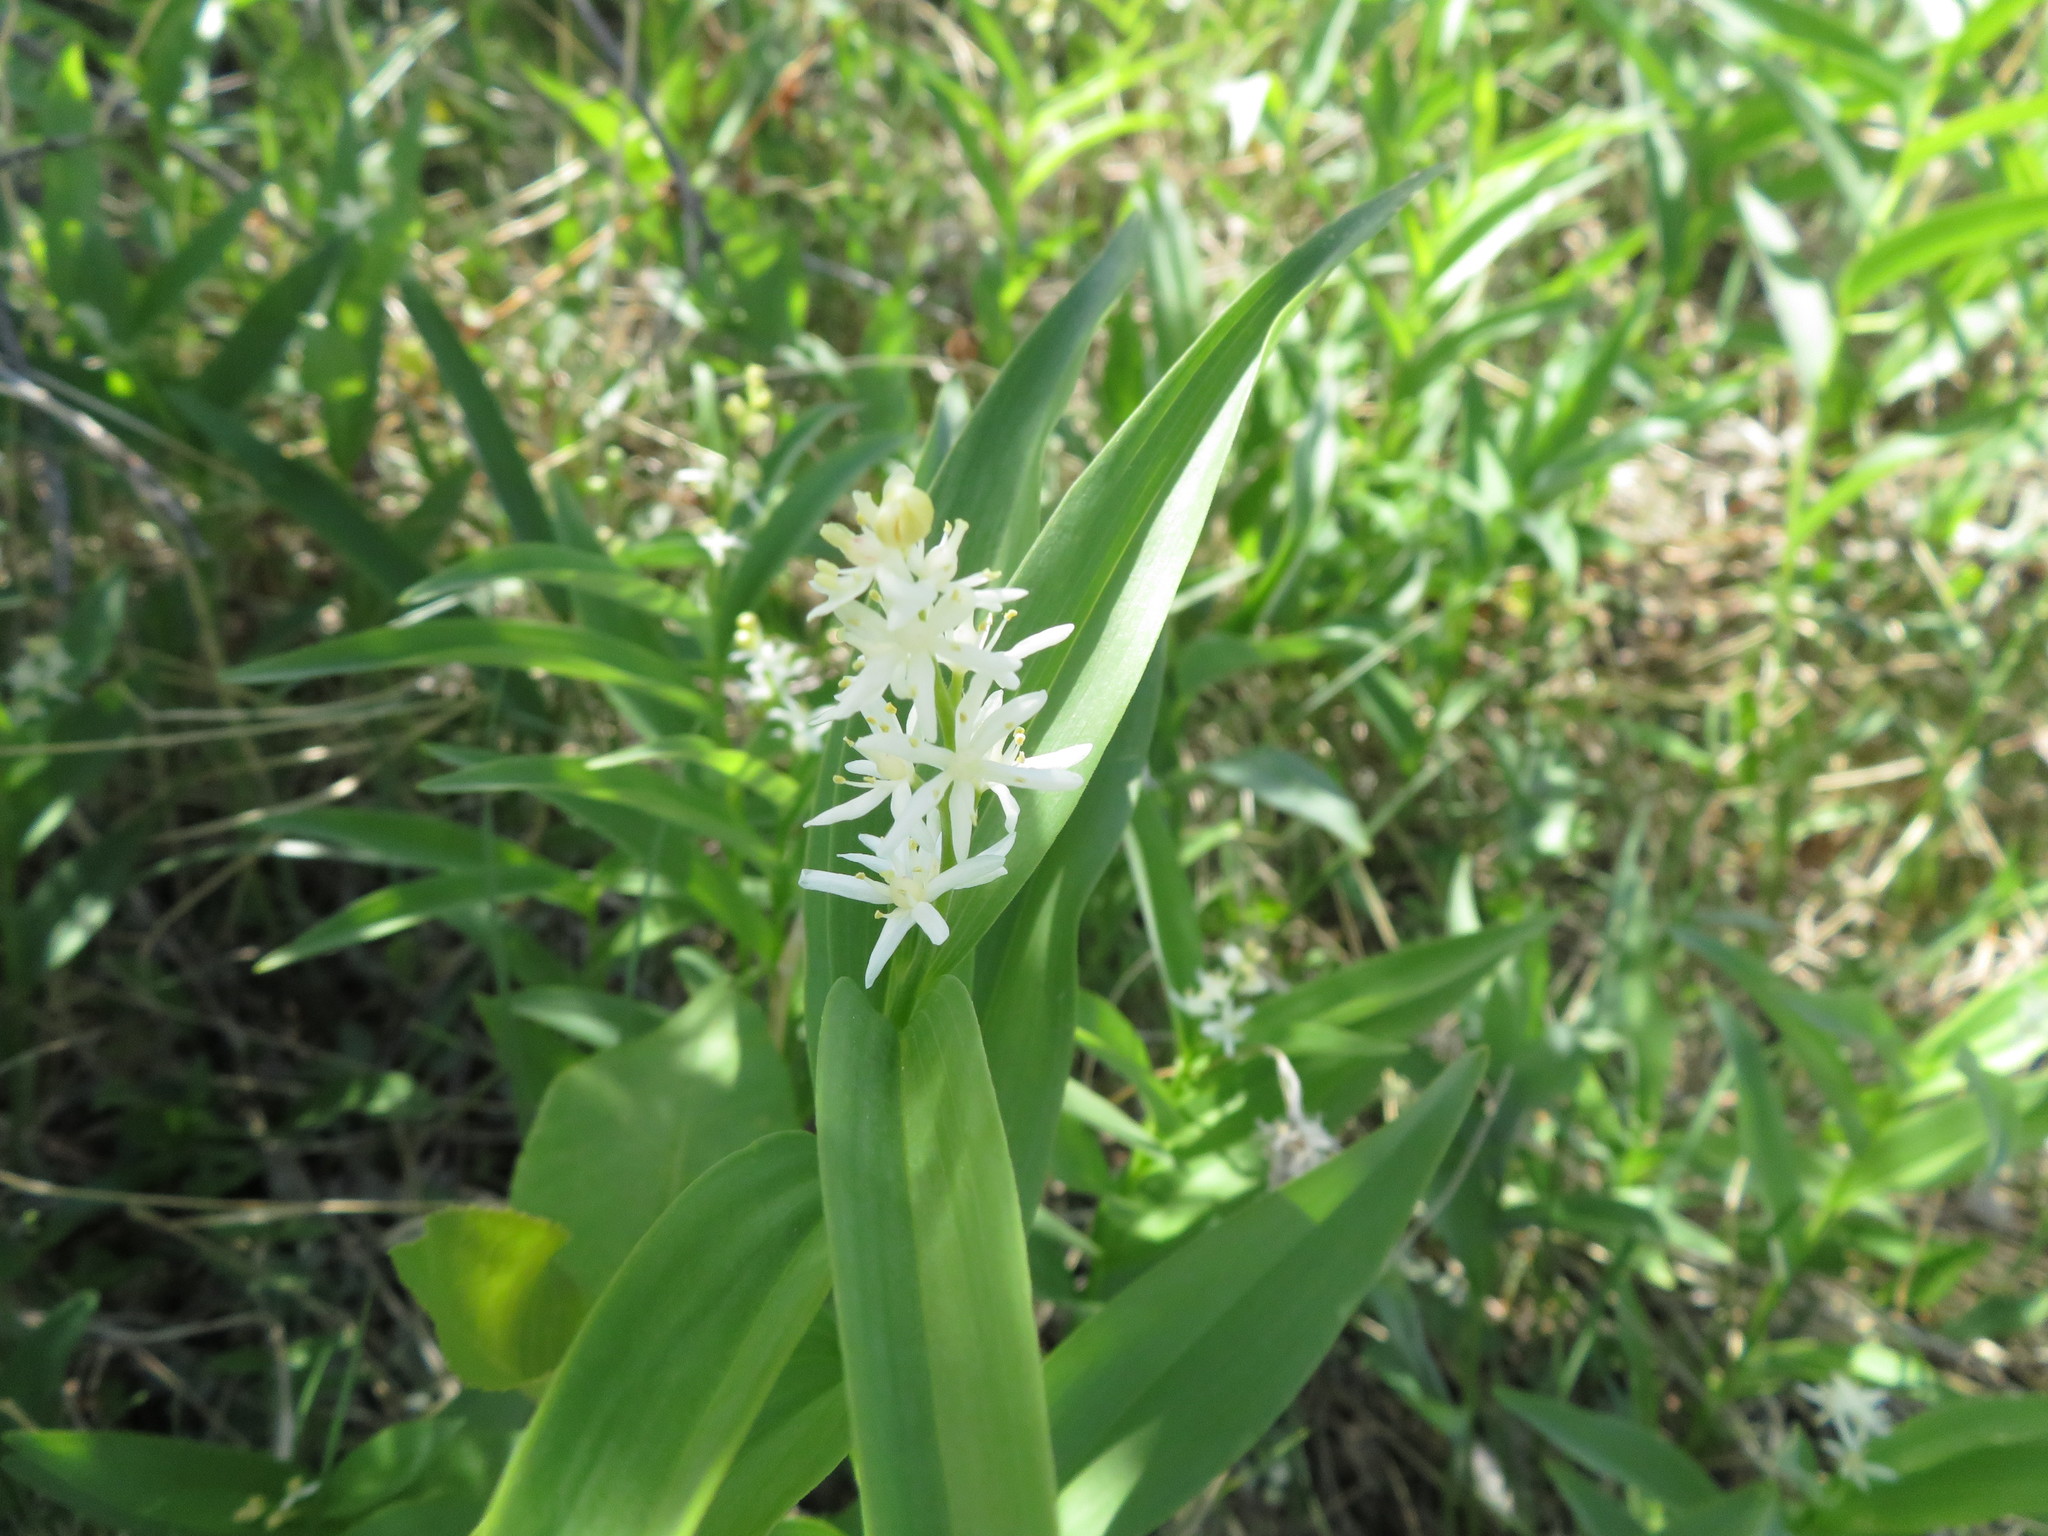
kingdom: Plantae
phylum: Tracheophyta
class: Liliopsida
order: Asparagales
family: Asparagaceae
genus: Maianthemum
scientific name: Maianthemum stellatum
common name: Little false solomon's seal
